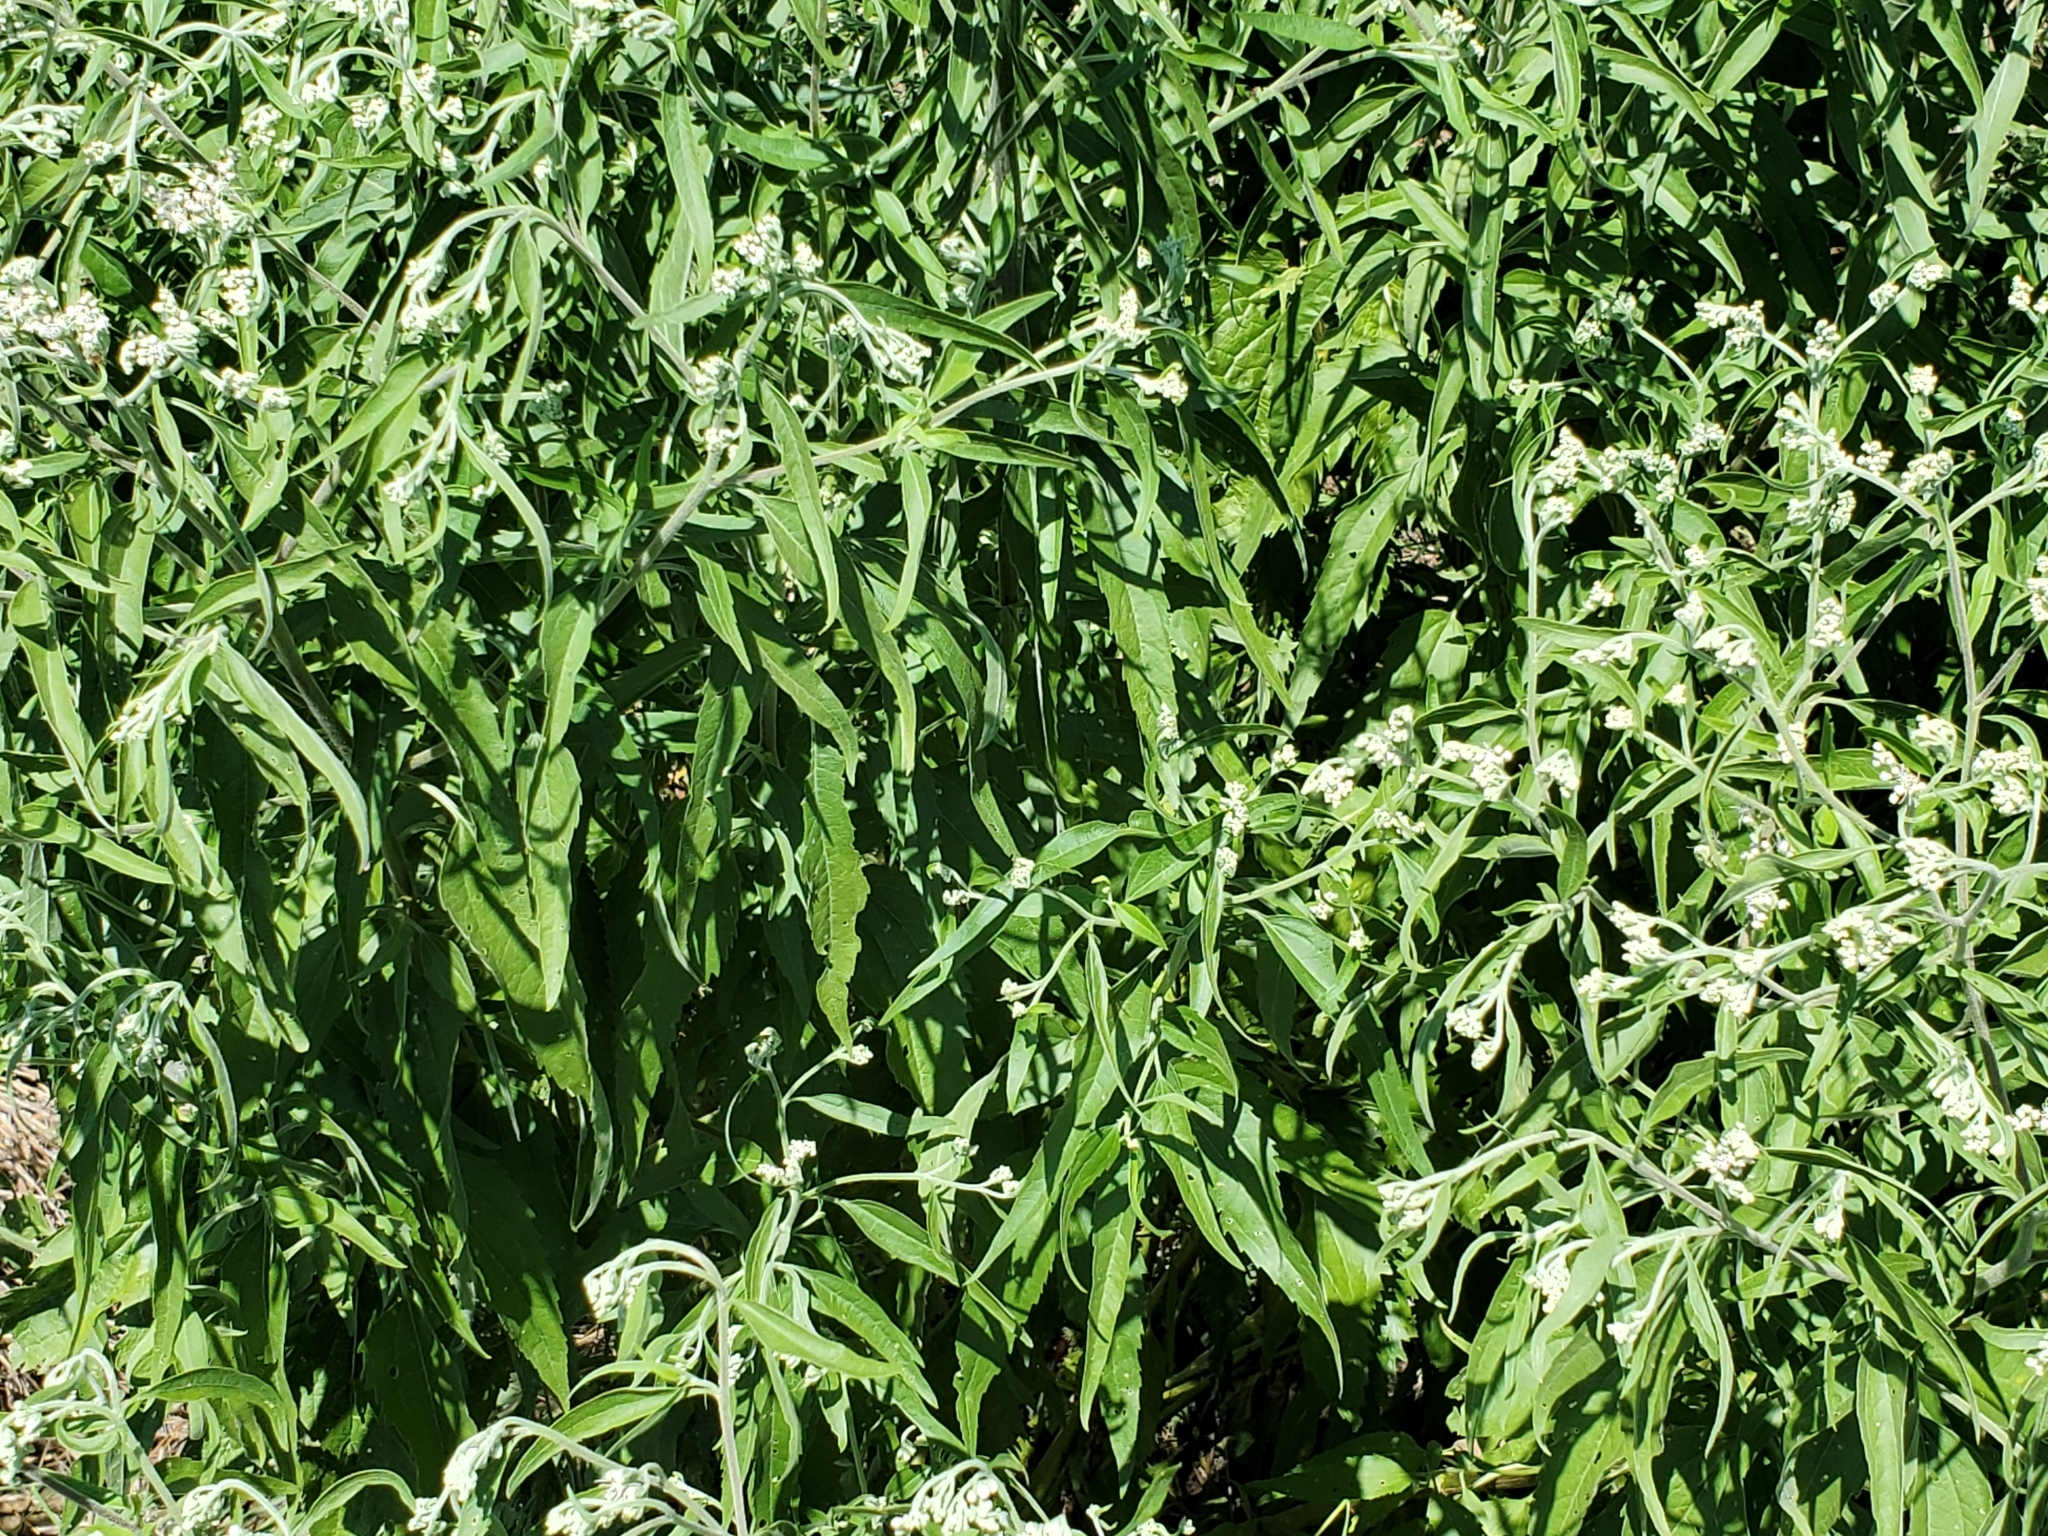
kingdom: Plantae
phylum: Tracheophyta
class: Magnoliopsida
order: Asterales
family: Asteraceae
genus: Eupatorium
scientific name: Eupatorium serotinum
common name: Late boneset
